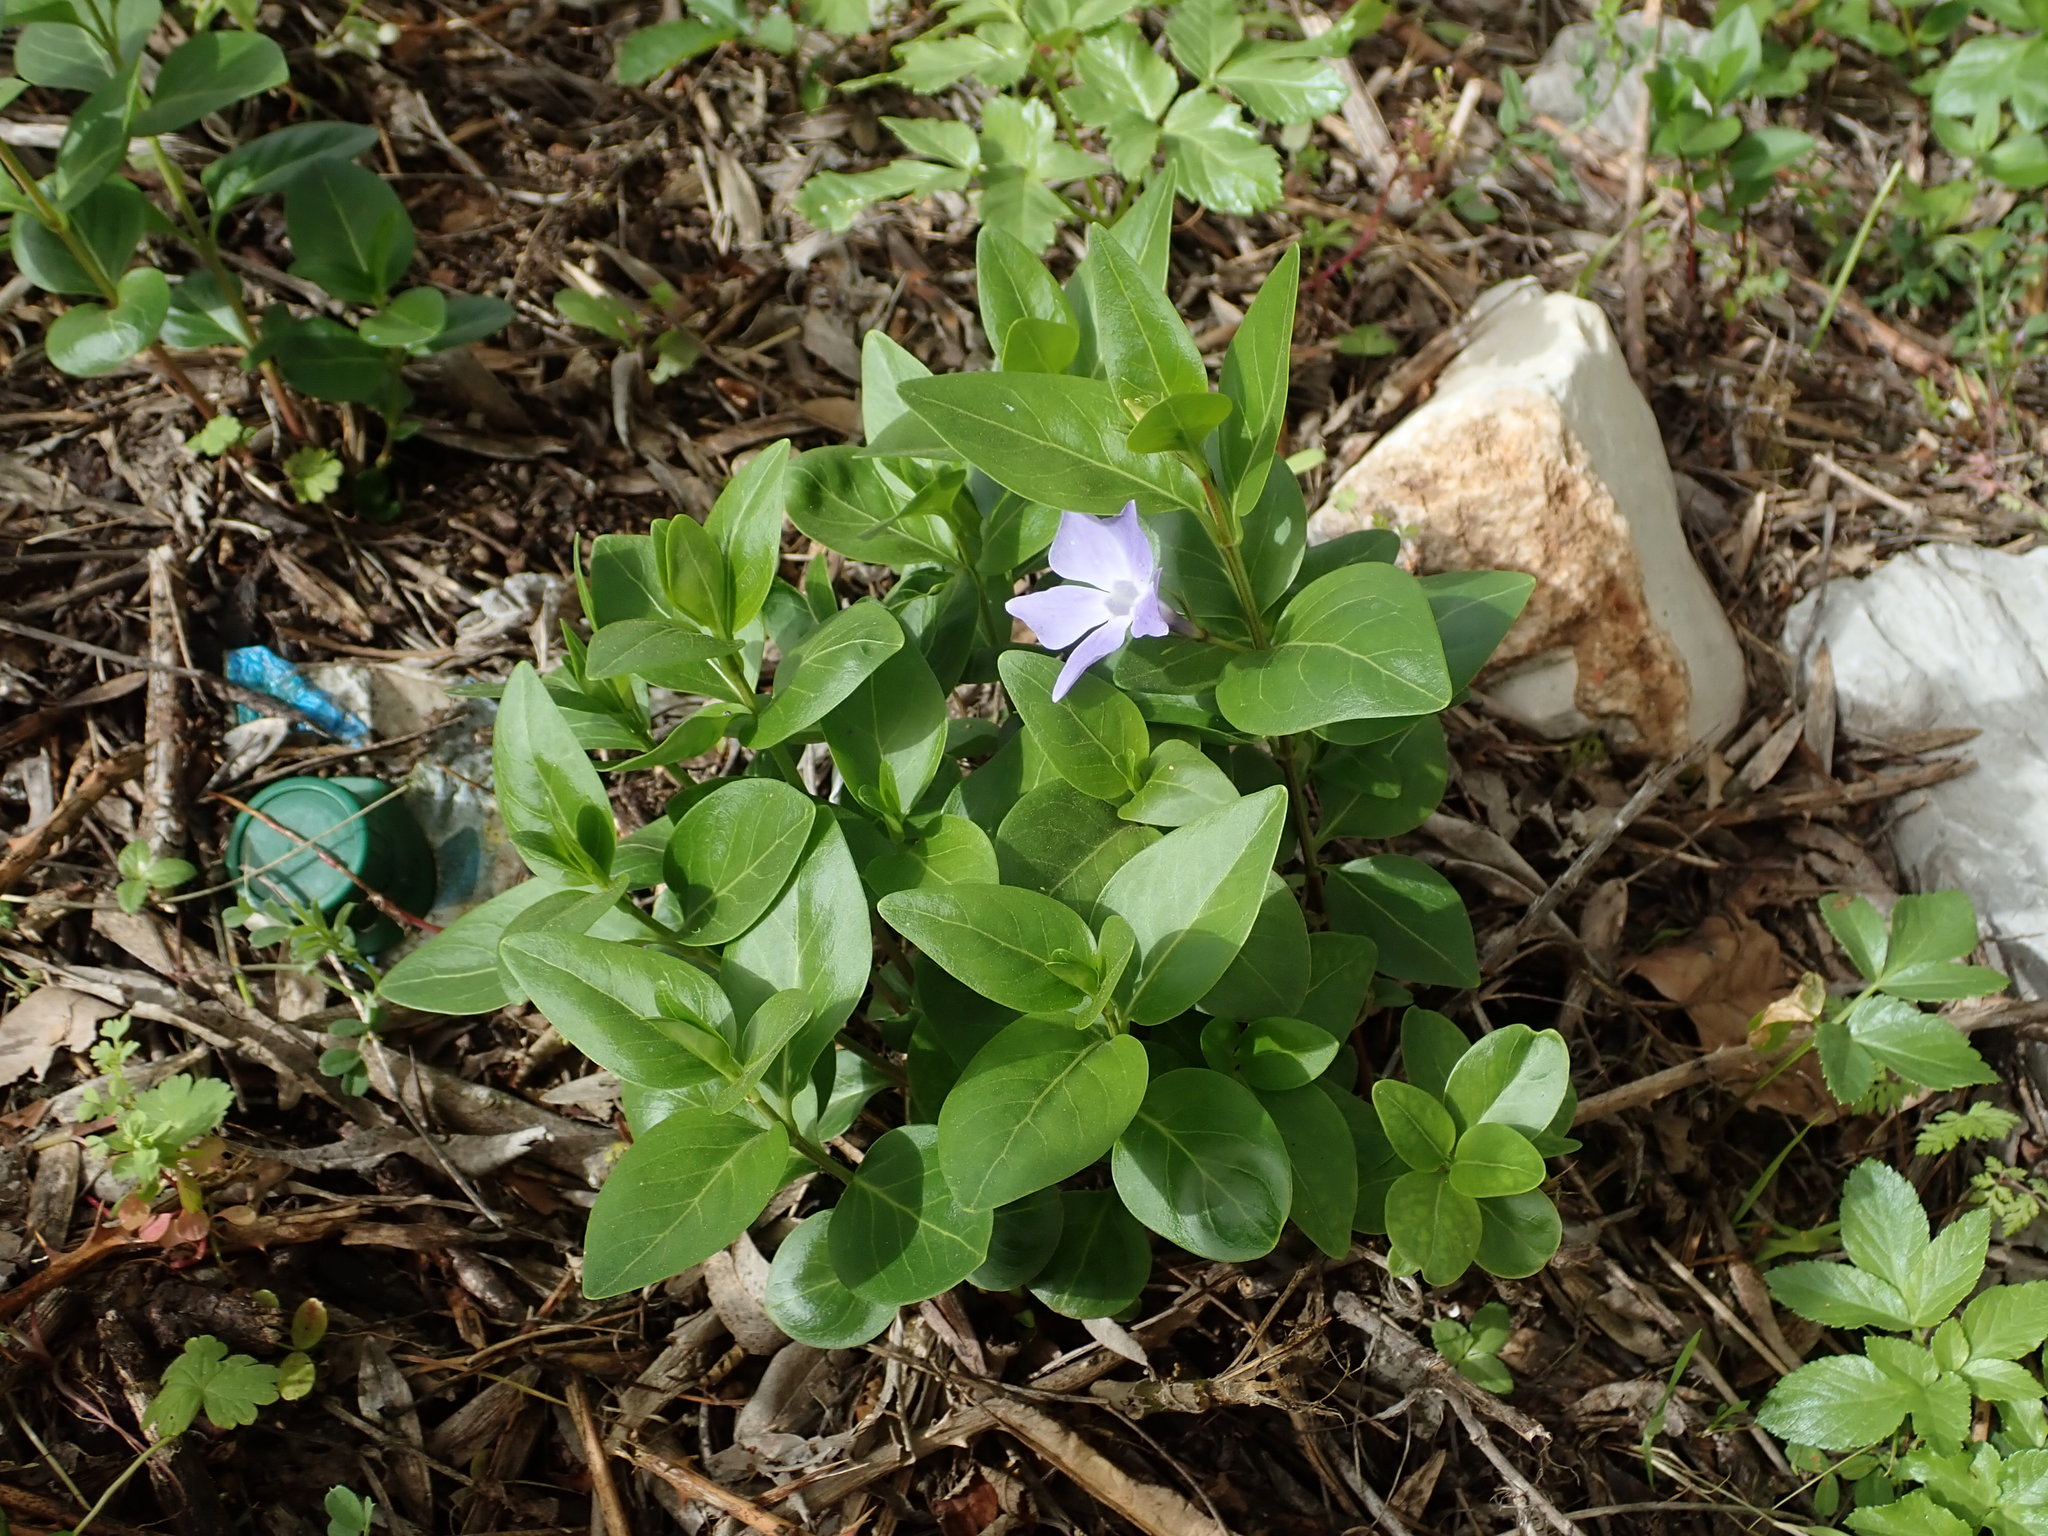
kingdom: Plantae
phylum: Tracheophyta
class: Magnoliopsida
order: Gentianales
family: Apocynaceae
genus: Vinca
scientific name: Vinca difformis
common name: Intermediate periwinkle
